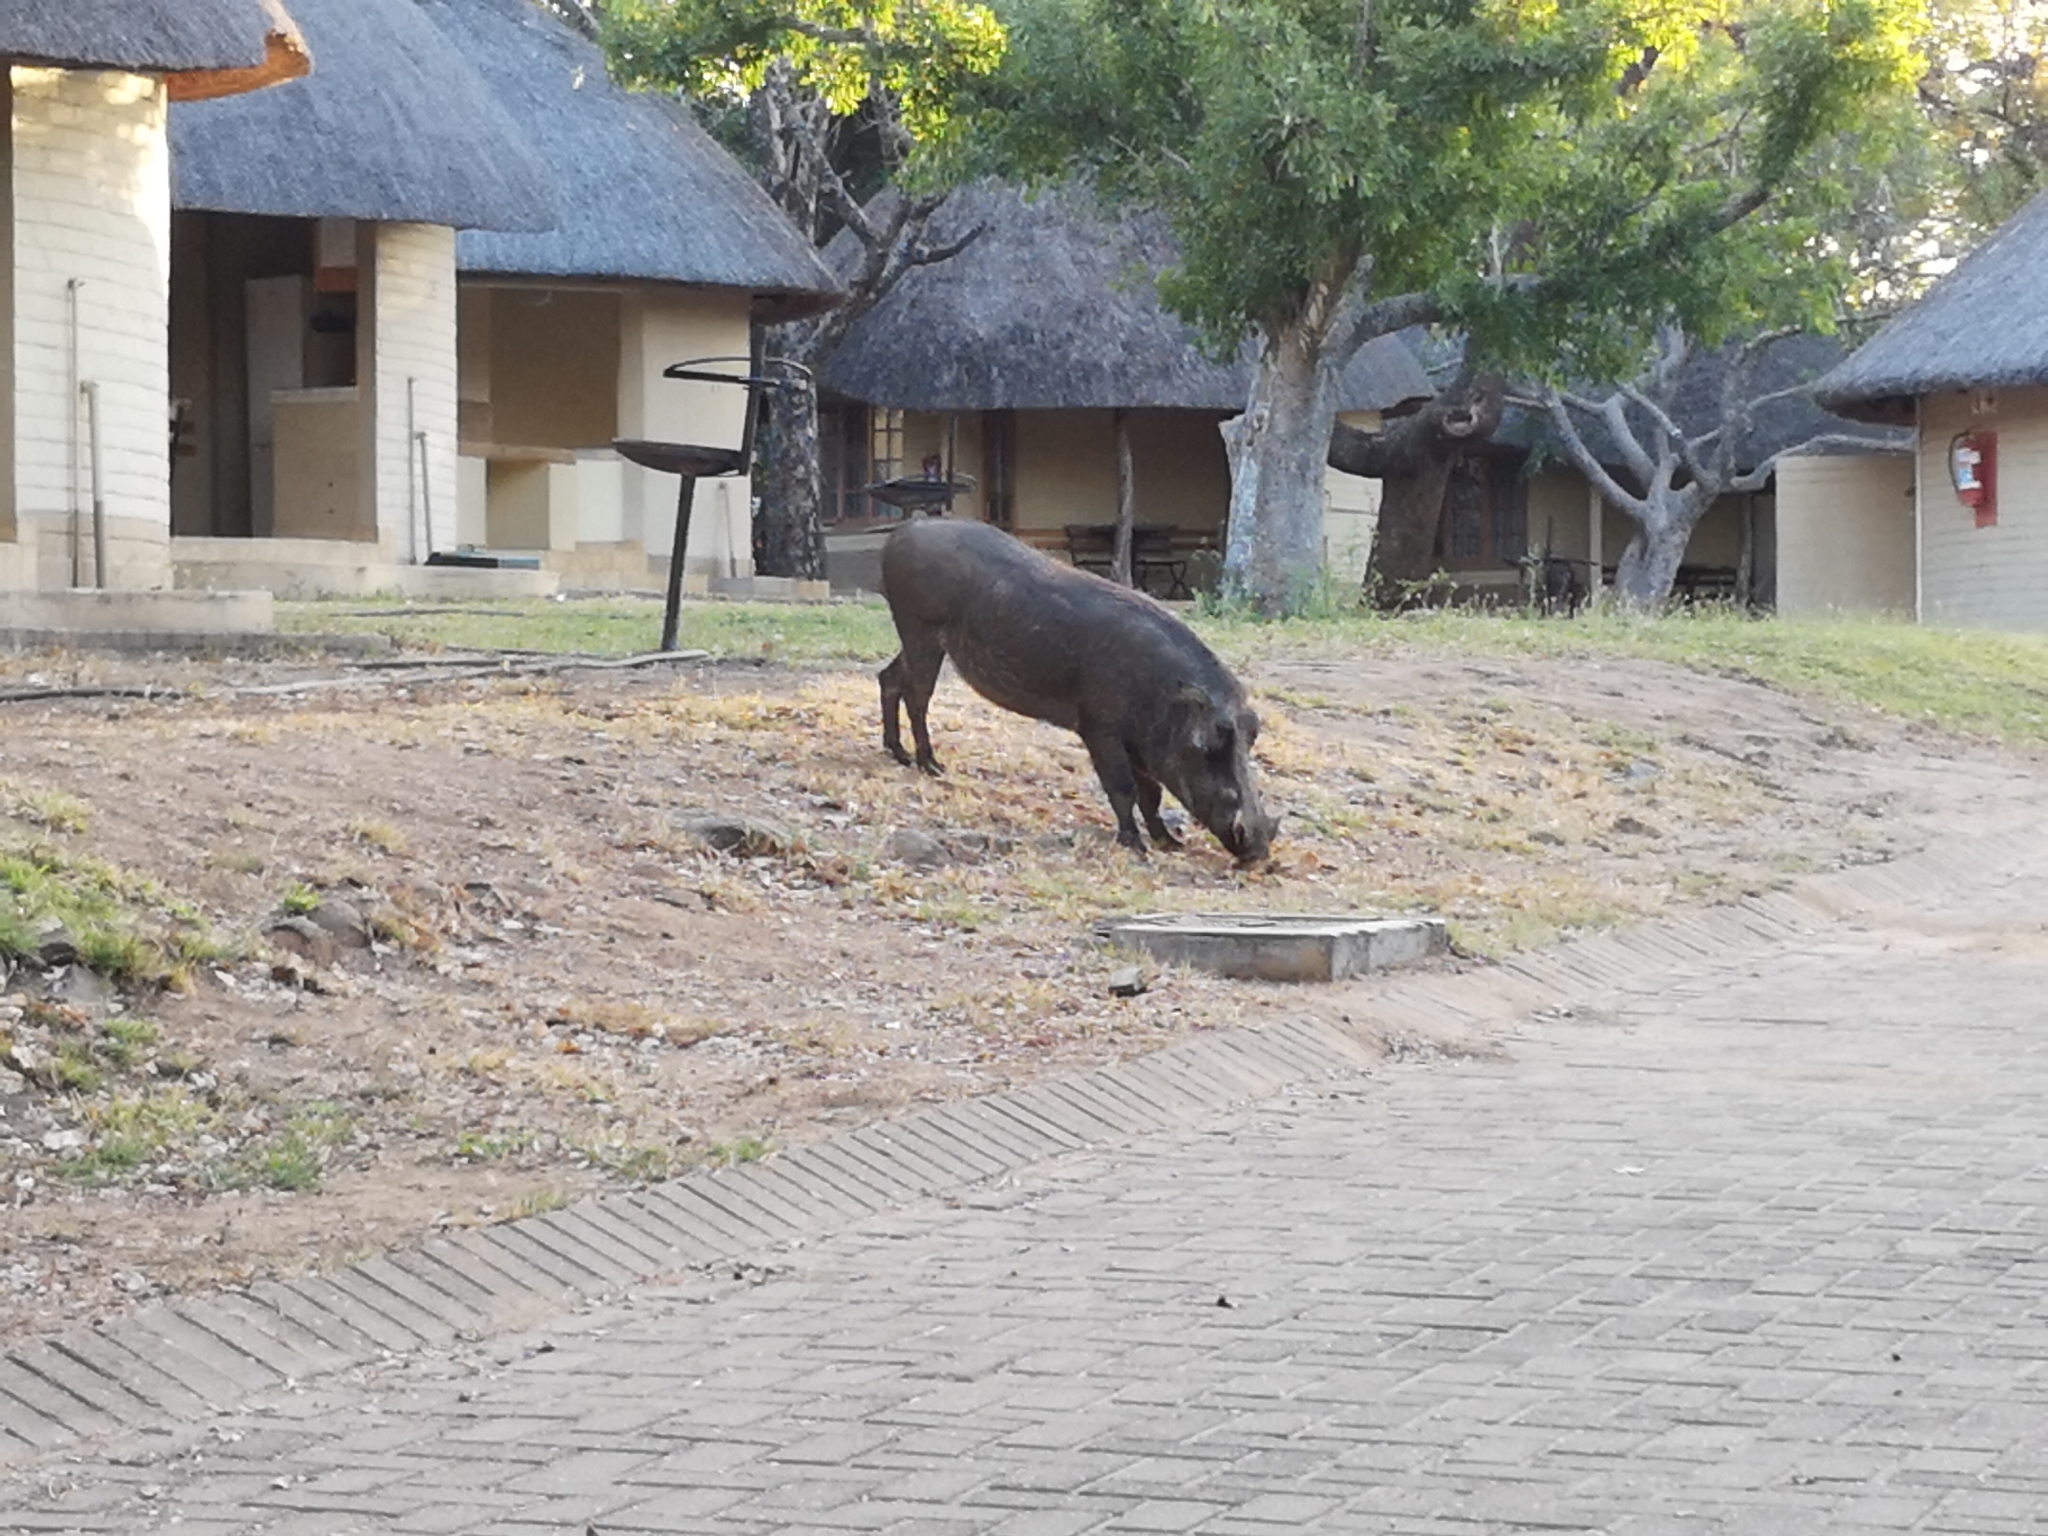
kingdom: Animalia
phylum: Chordata
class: Mammalia
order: Artiodactyla
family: Suidae
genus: Phacochoerus
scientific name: Phacochoerus africanus
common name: Common warthog
